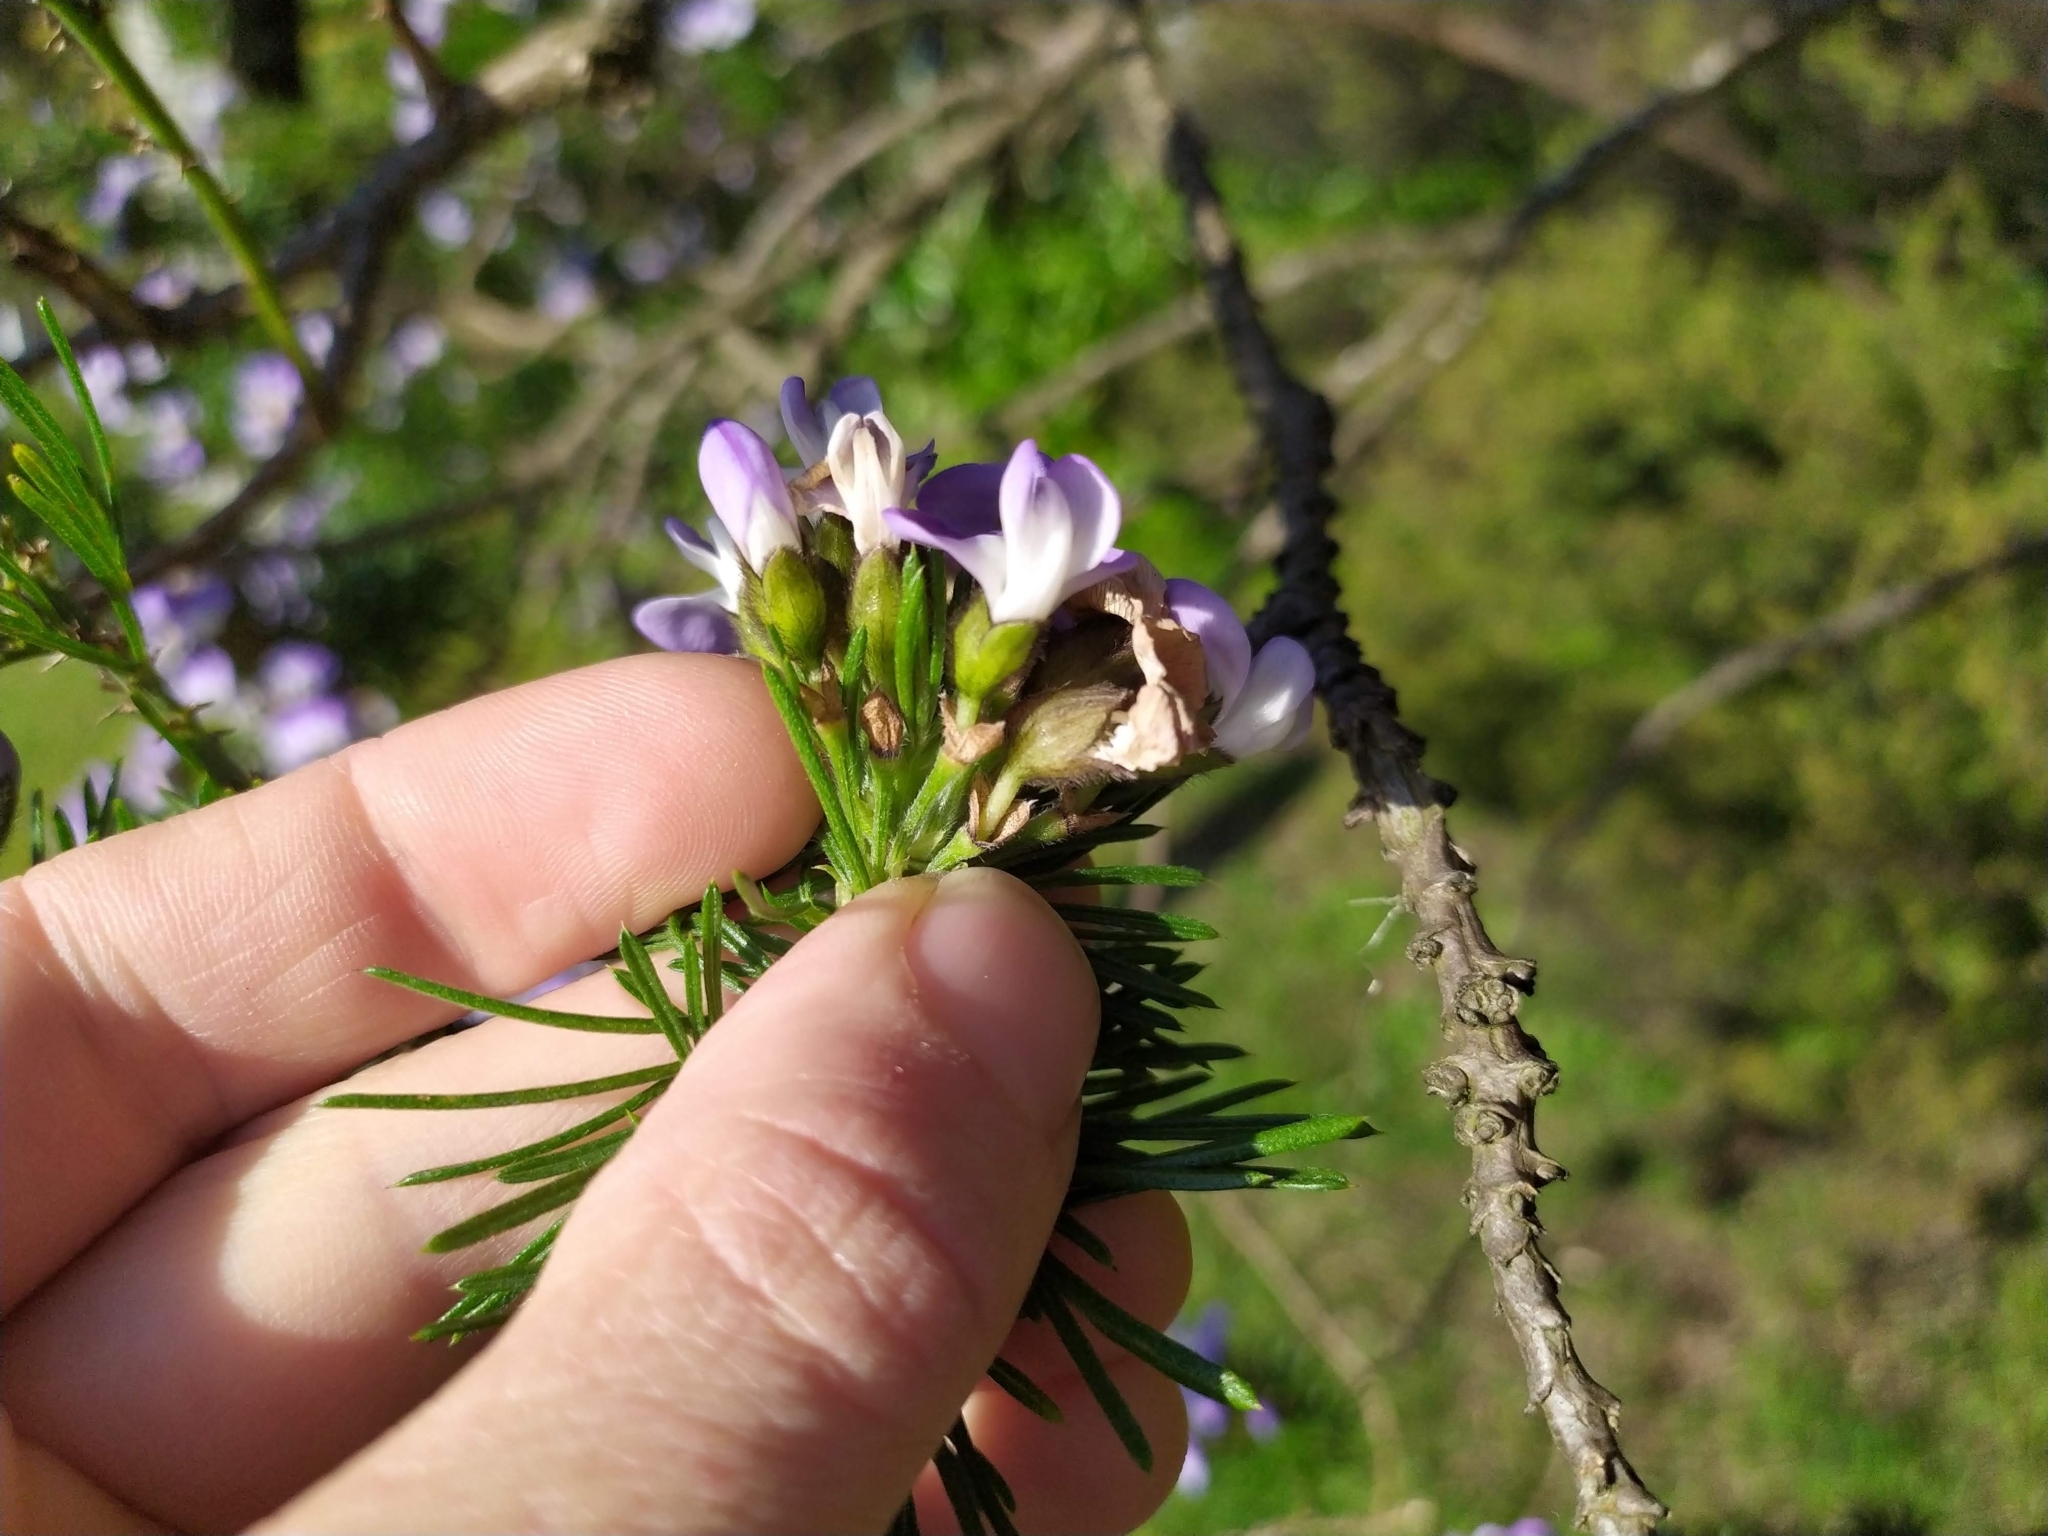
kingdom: Plantae
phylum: Tracheophyta
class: Magnoliopsida
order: Fabales
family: Fabaceae
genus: Psoralea
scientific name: Psoralea arborea
